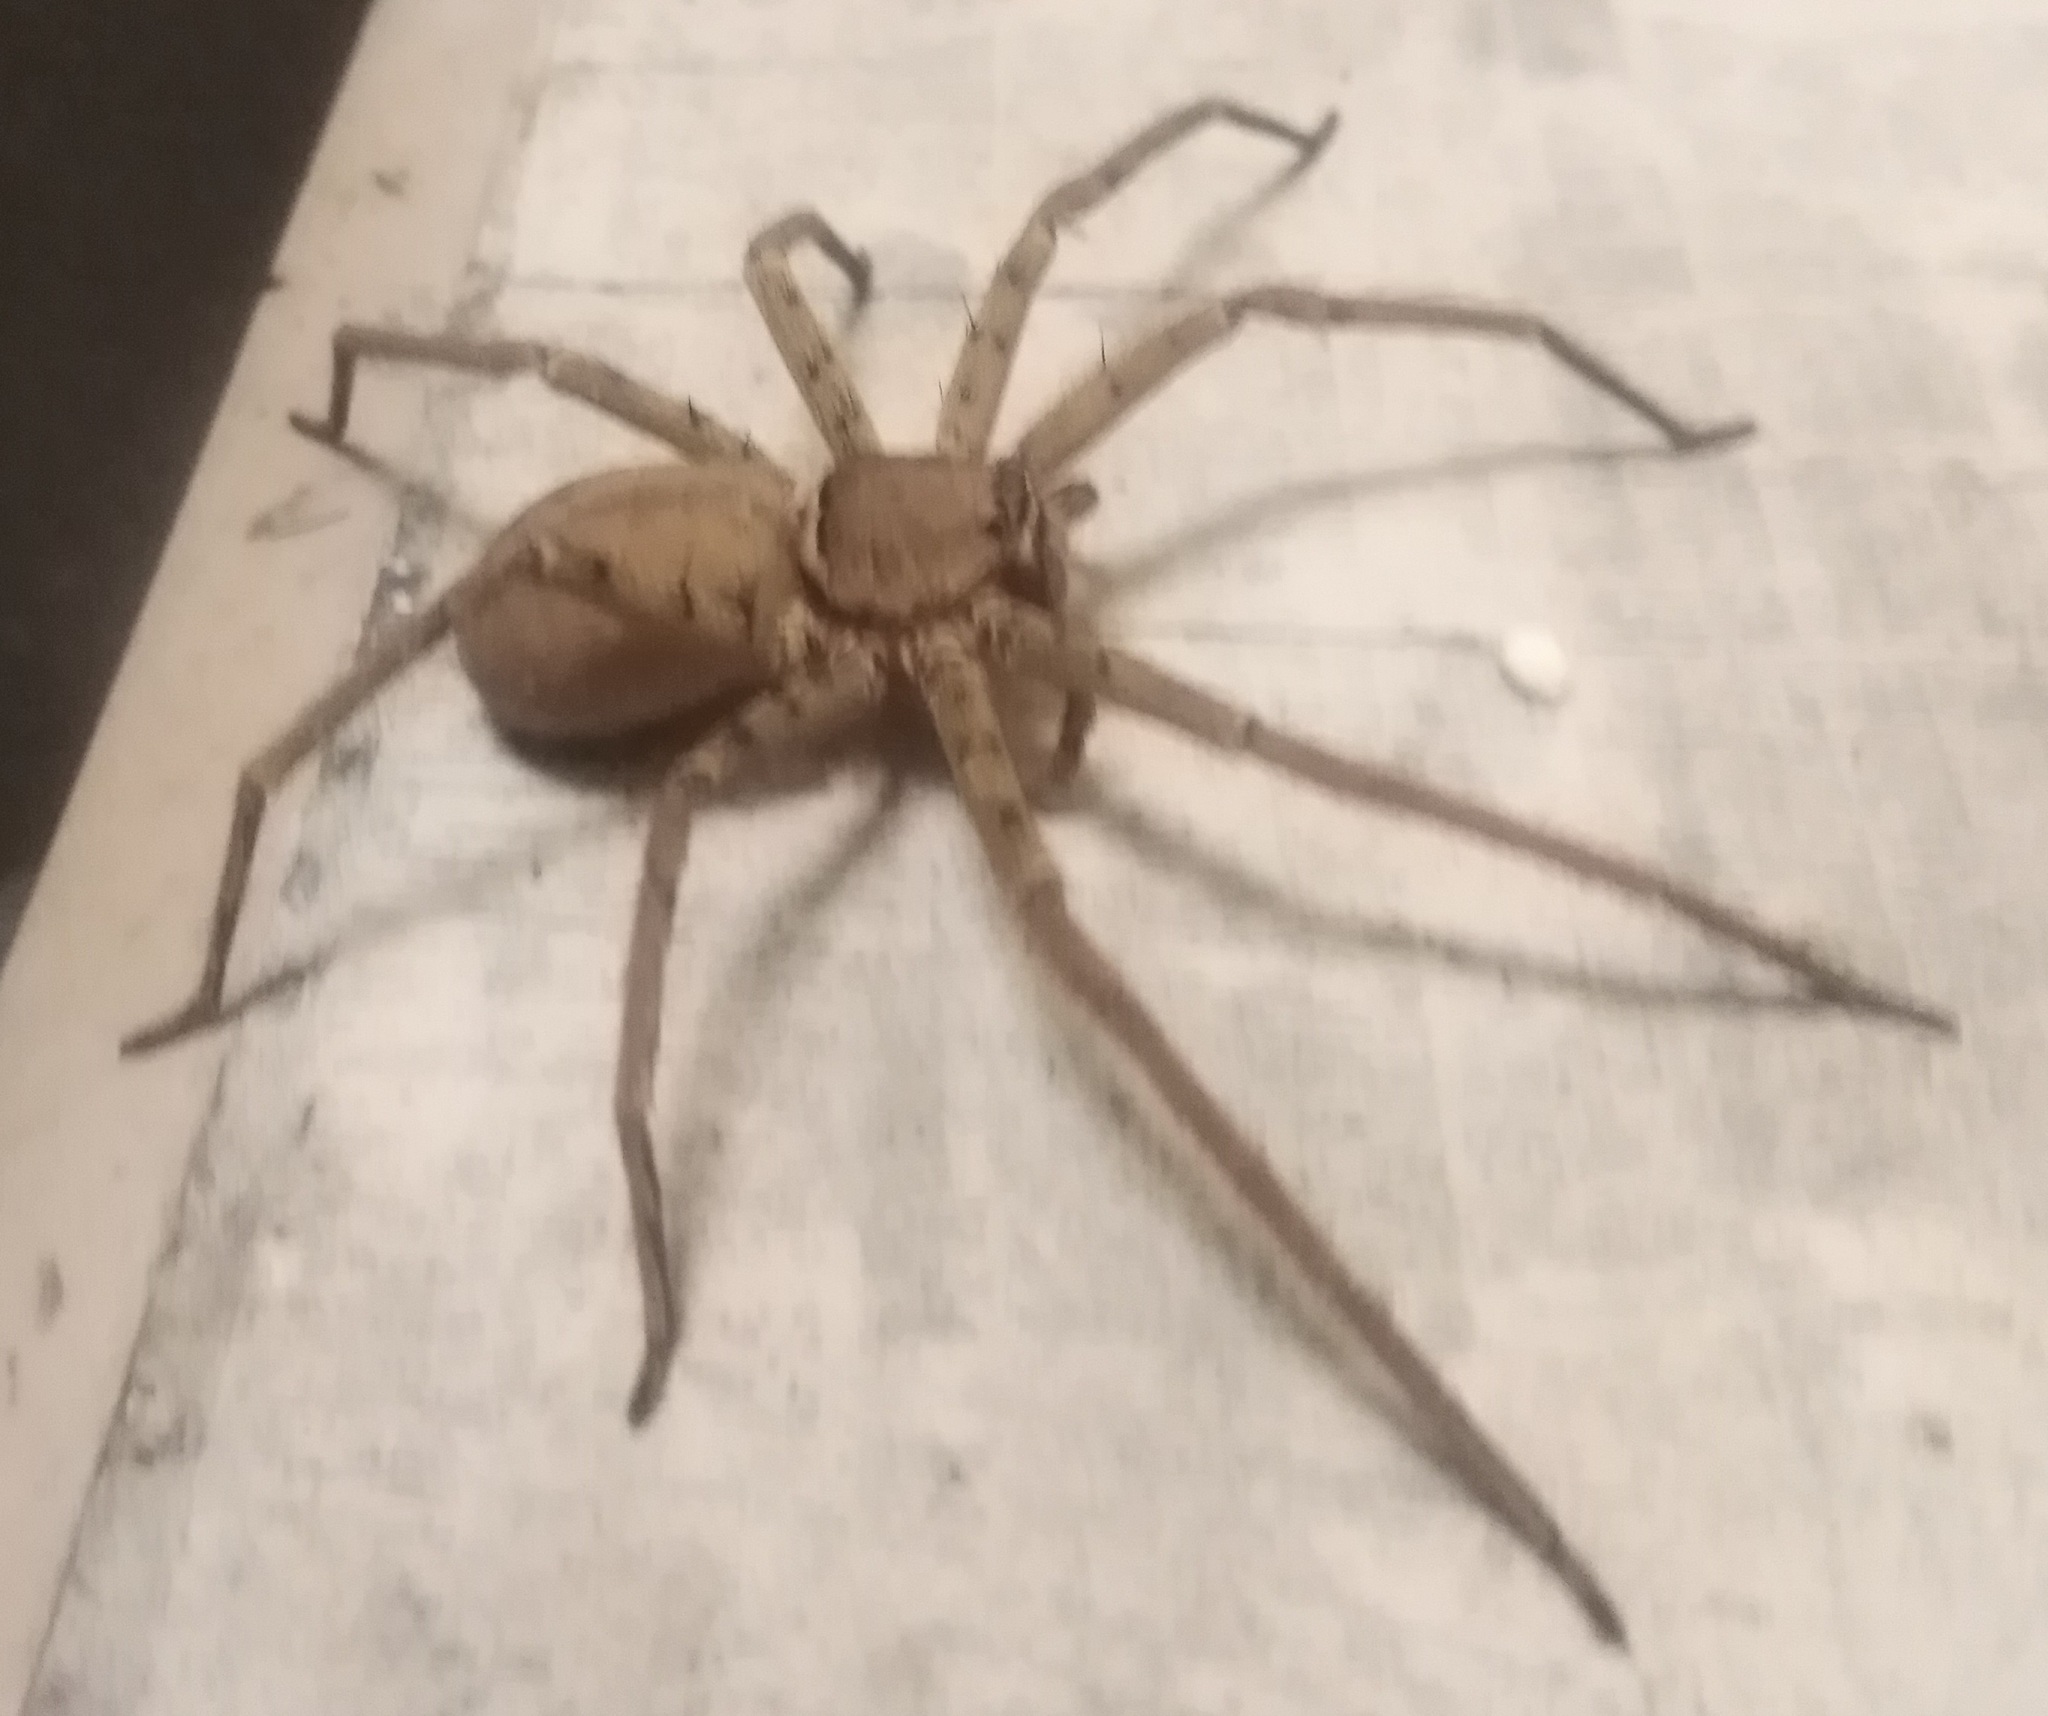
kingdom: Animalia
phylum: Arthropoda
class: Arachnida
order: Araneae
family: Sparassidae
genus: Heteropoda
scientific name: Heteropoda venatoria
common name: Huntsman spider
